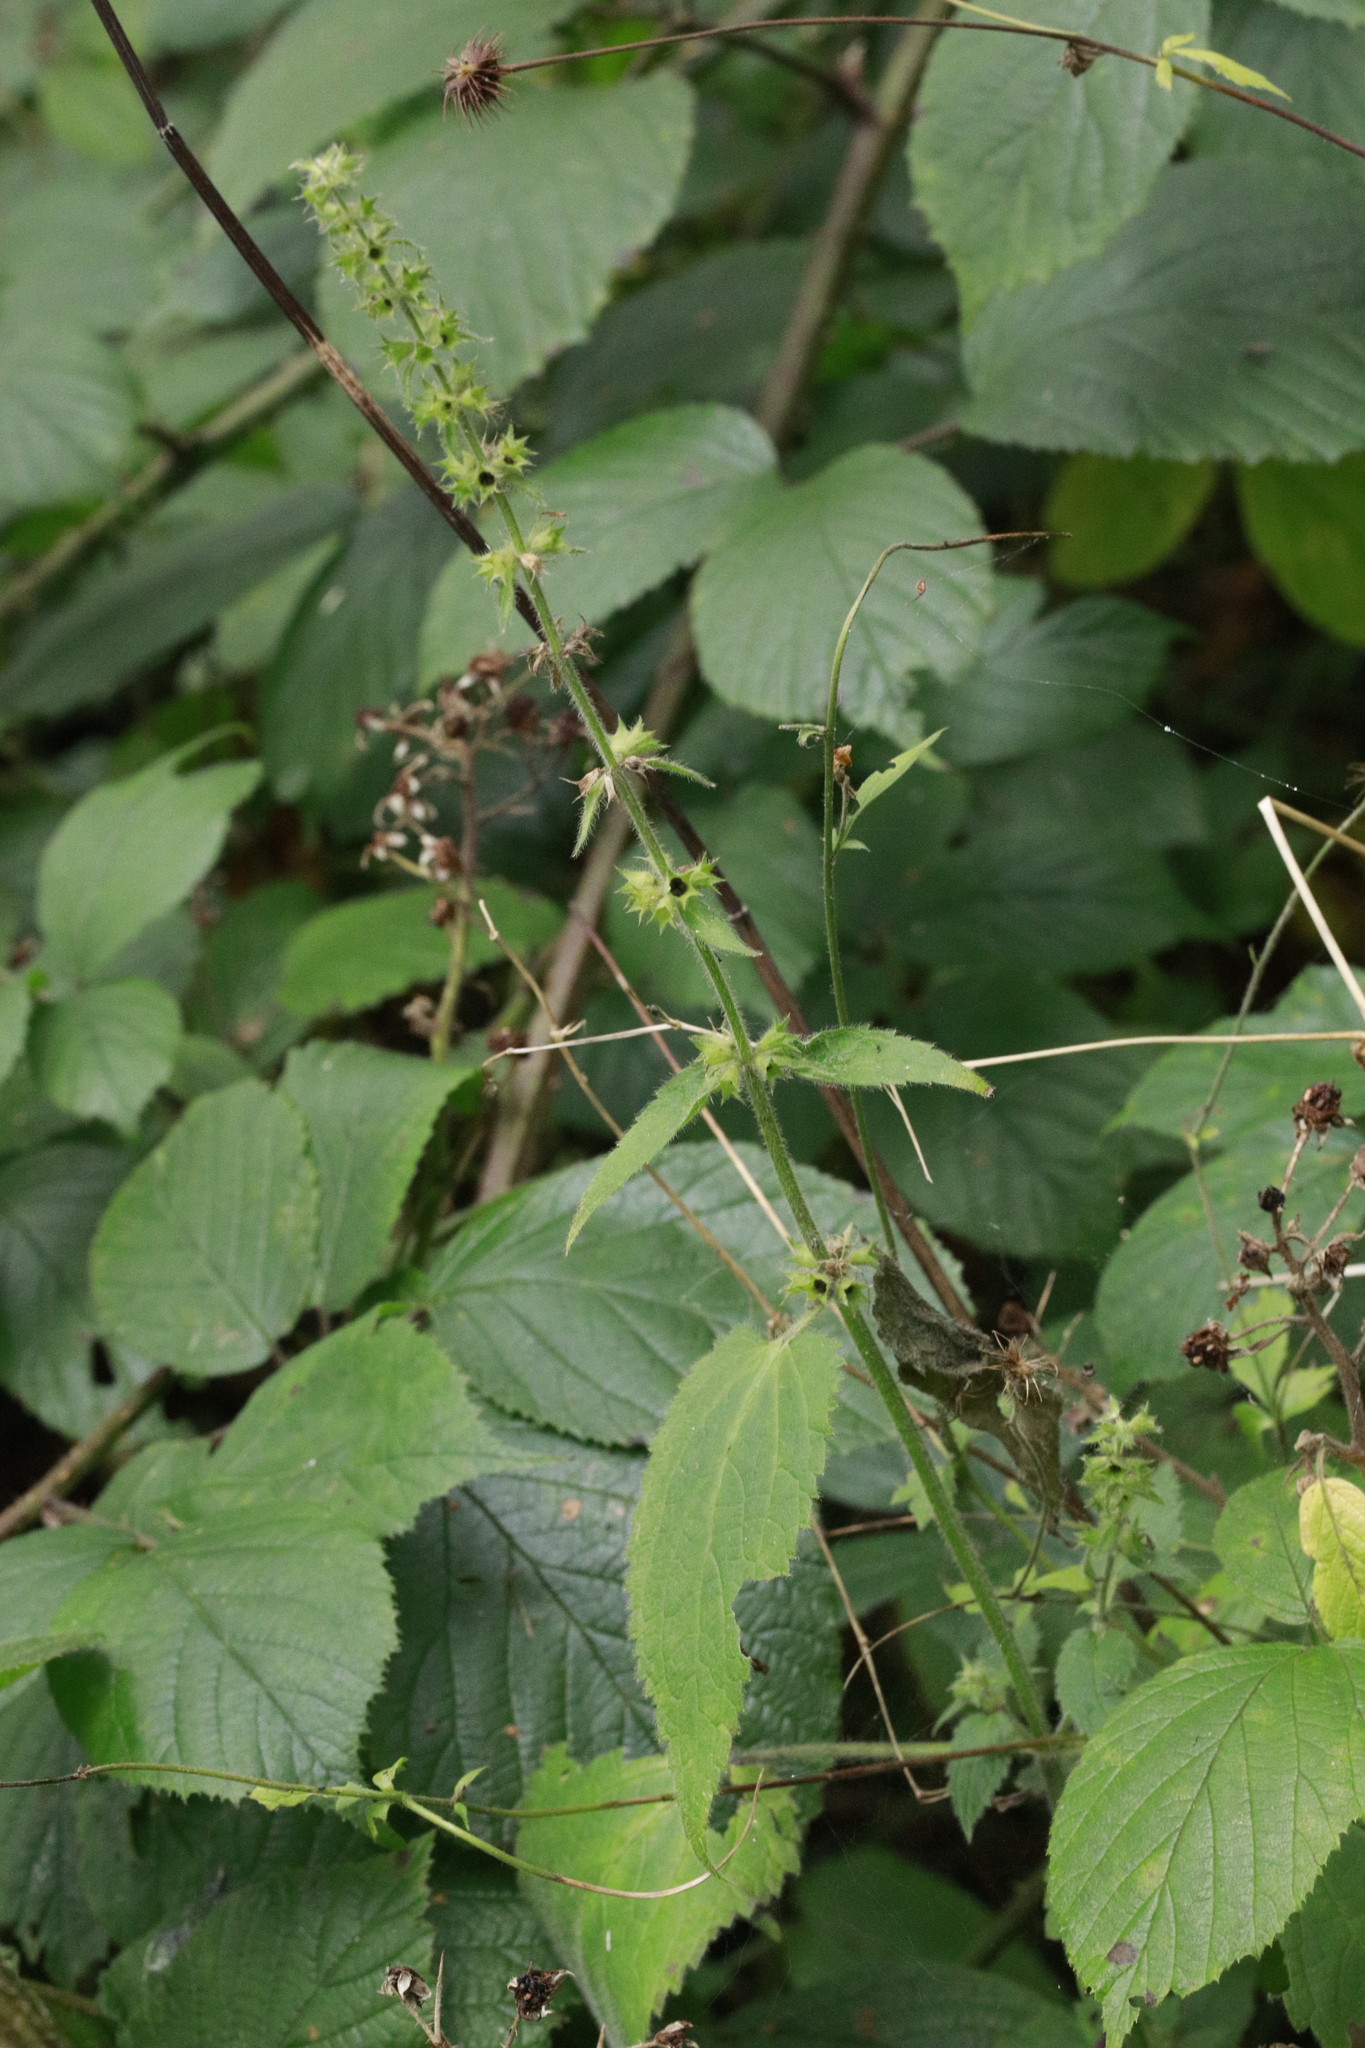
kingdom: Plantae
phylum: Tracheophyta
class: Magnoliopsida
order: Lamiales
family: Lamiaceae
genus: Stachys
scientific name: Stachys sylvatica
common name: Hedge woundwort
